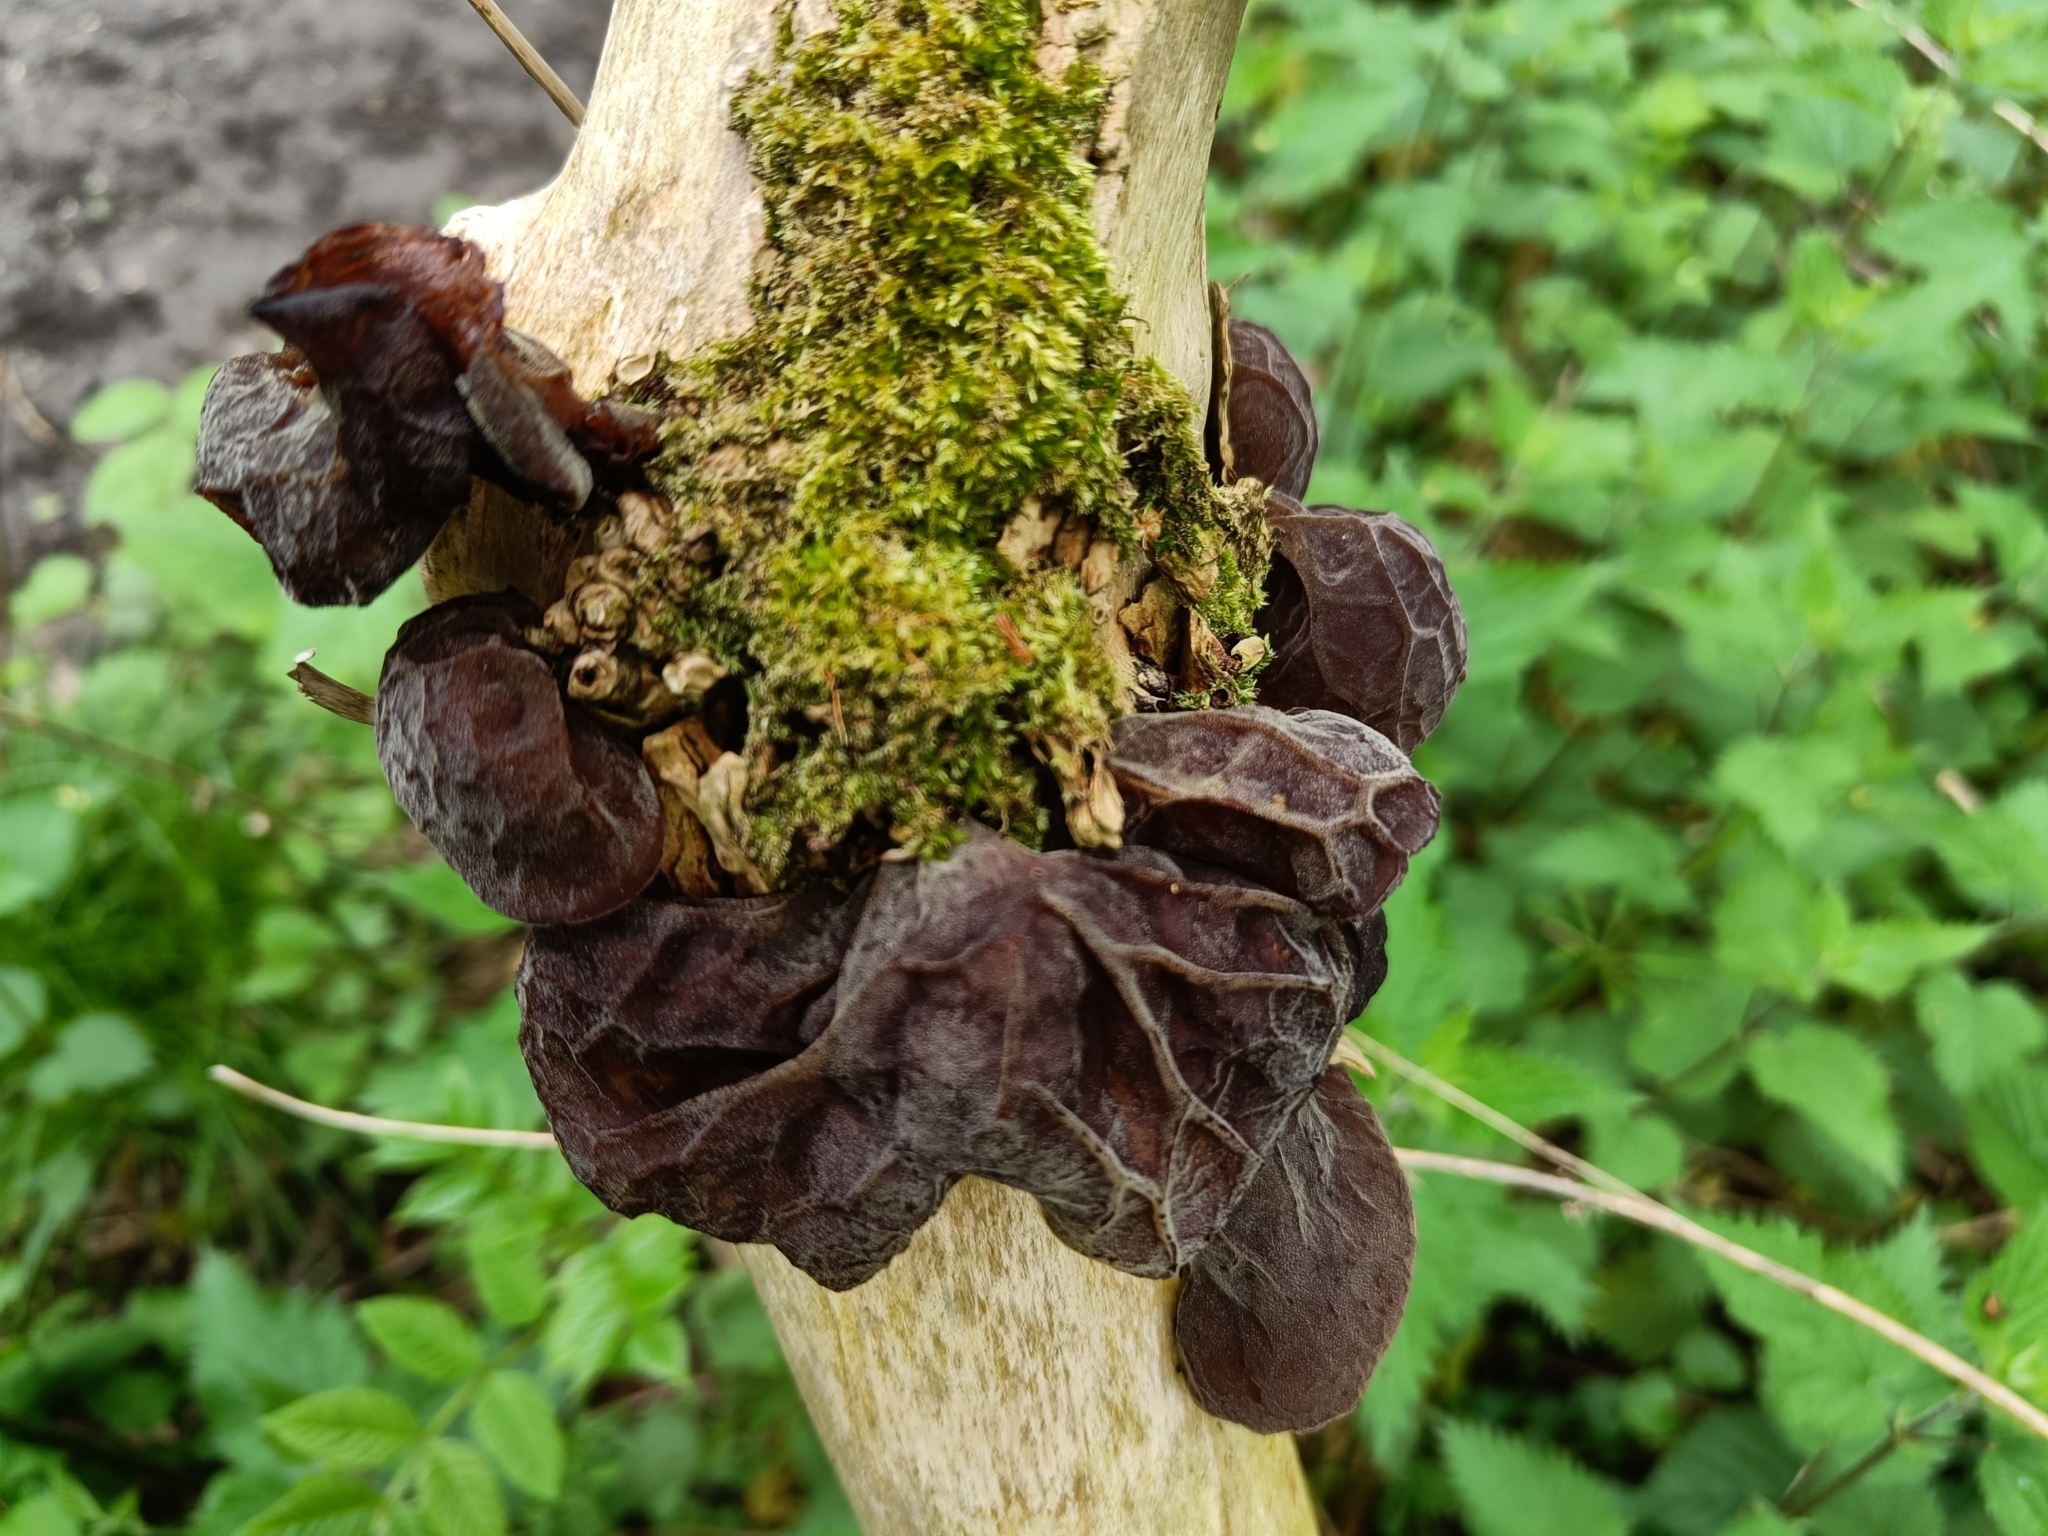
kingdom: Fungi
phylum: Basidiomycota
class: Agaricomycetes
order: Auriculariales
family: Auriculariaceae
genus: Auricularia
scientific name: Auricularia auricula-judae
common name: Jelly ear
